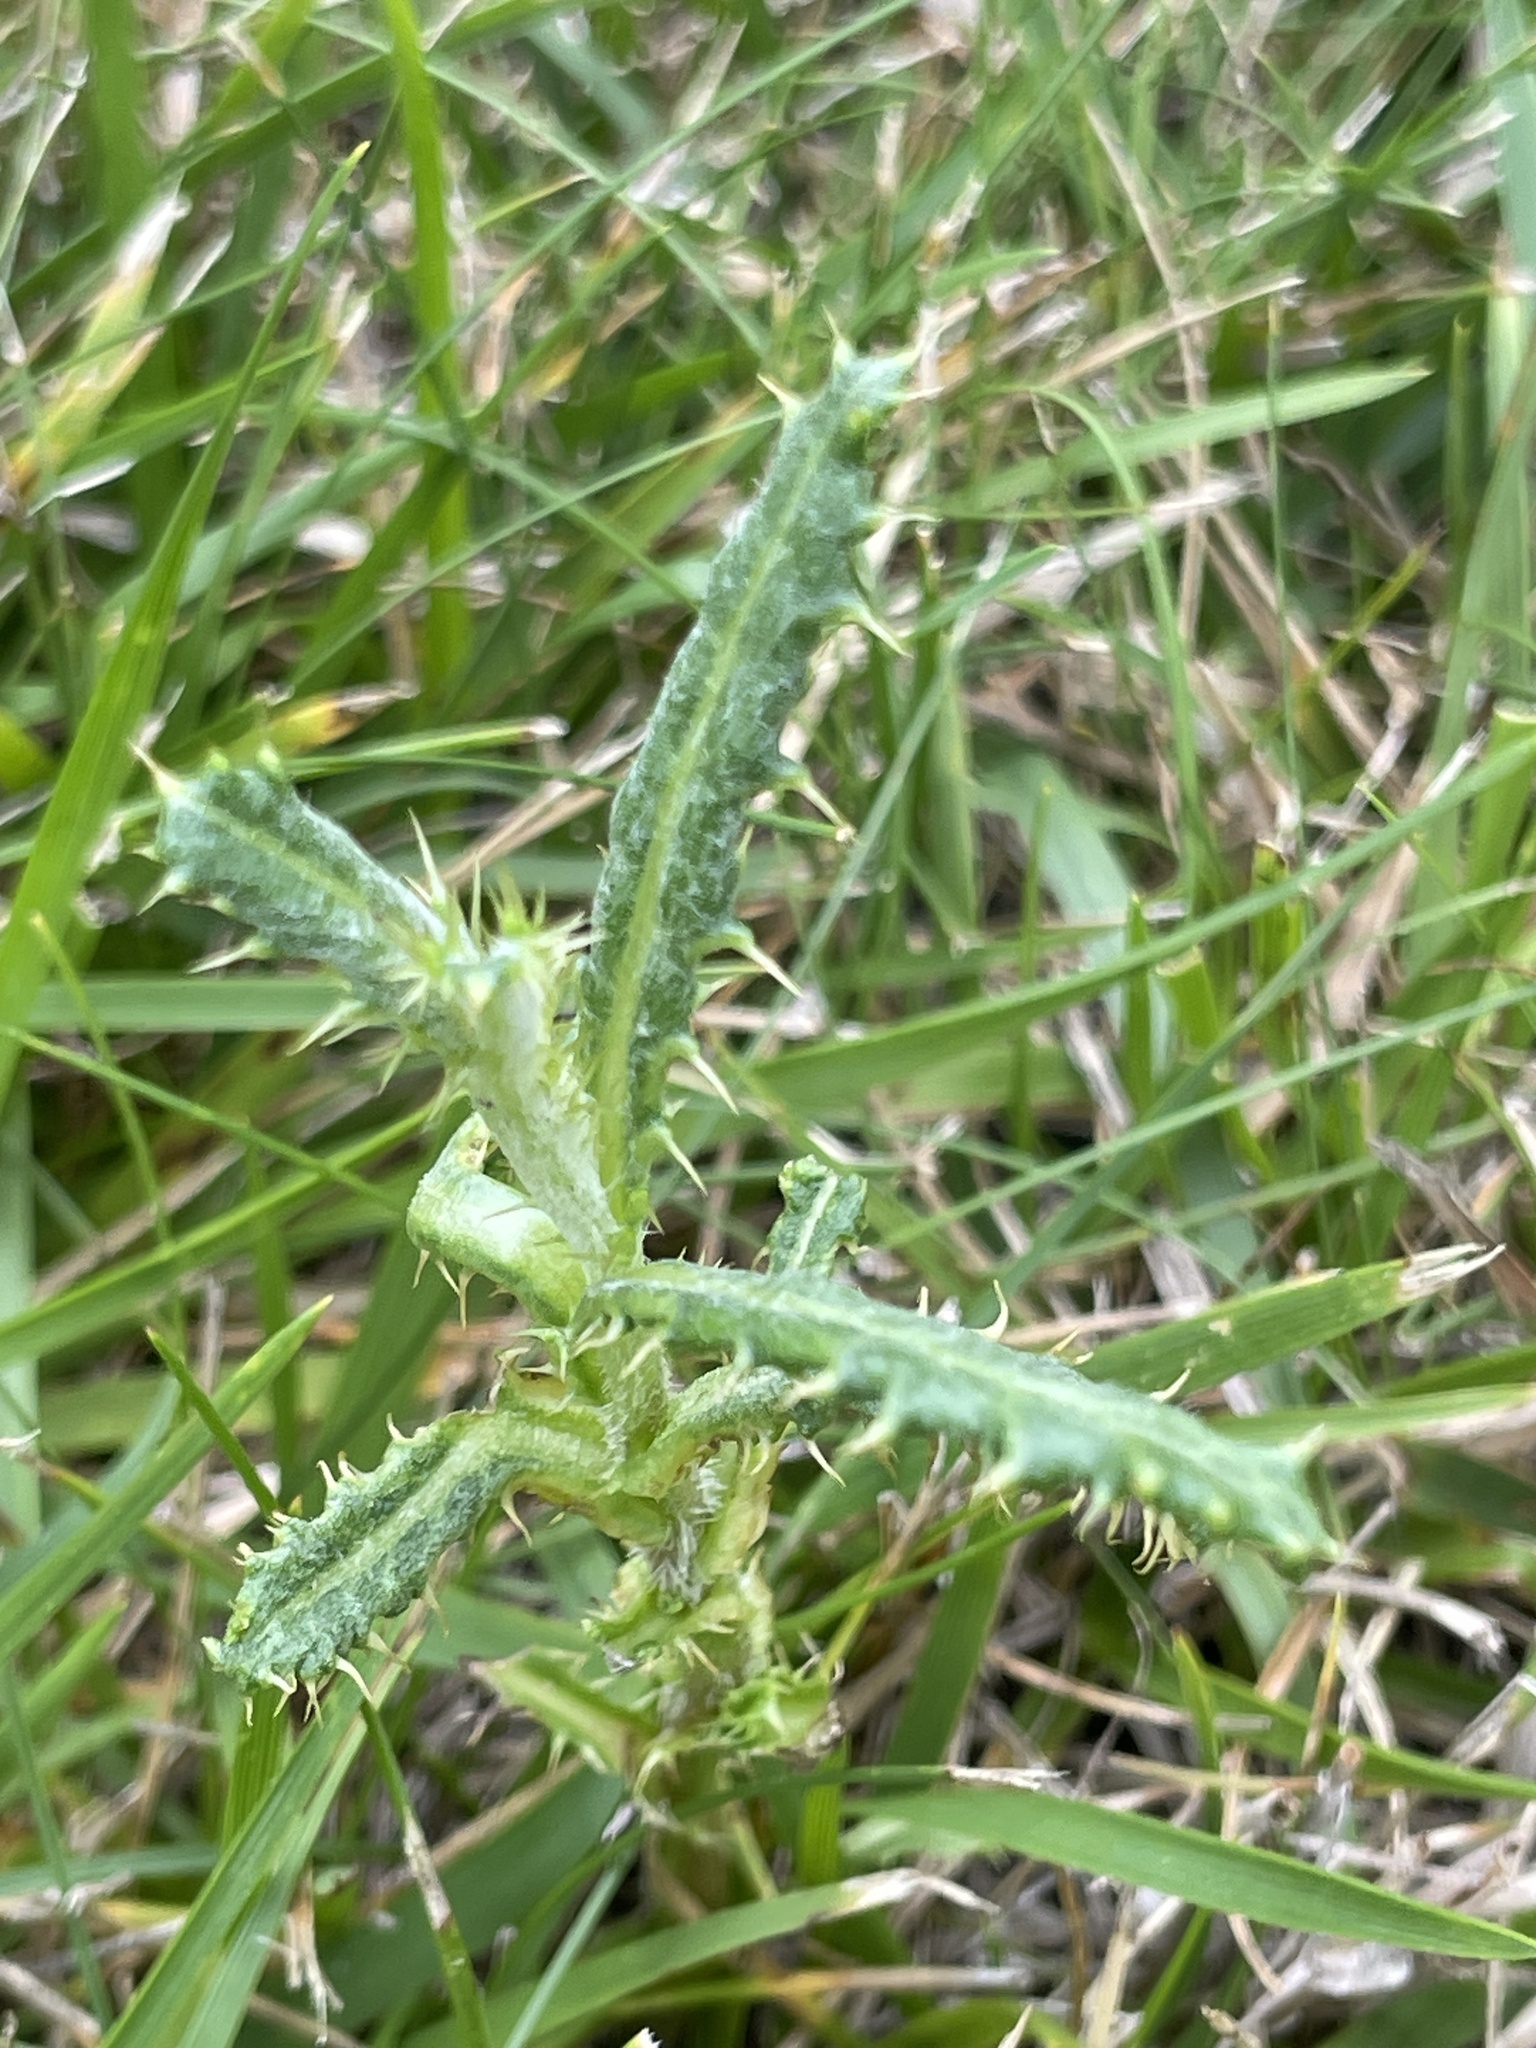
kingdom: Plantae
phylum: Tracheophyta
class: Magnoliopsida
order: Asterales
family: Asteraceae
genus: Cirsium
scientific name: Cirsium arvense
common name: Creeping thistle
